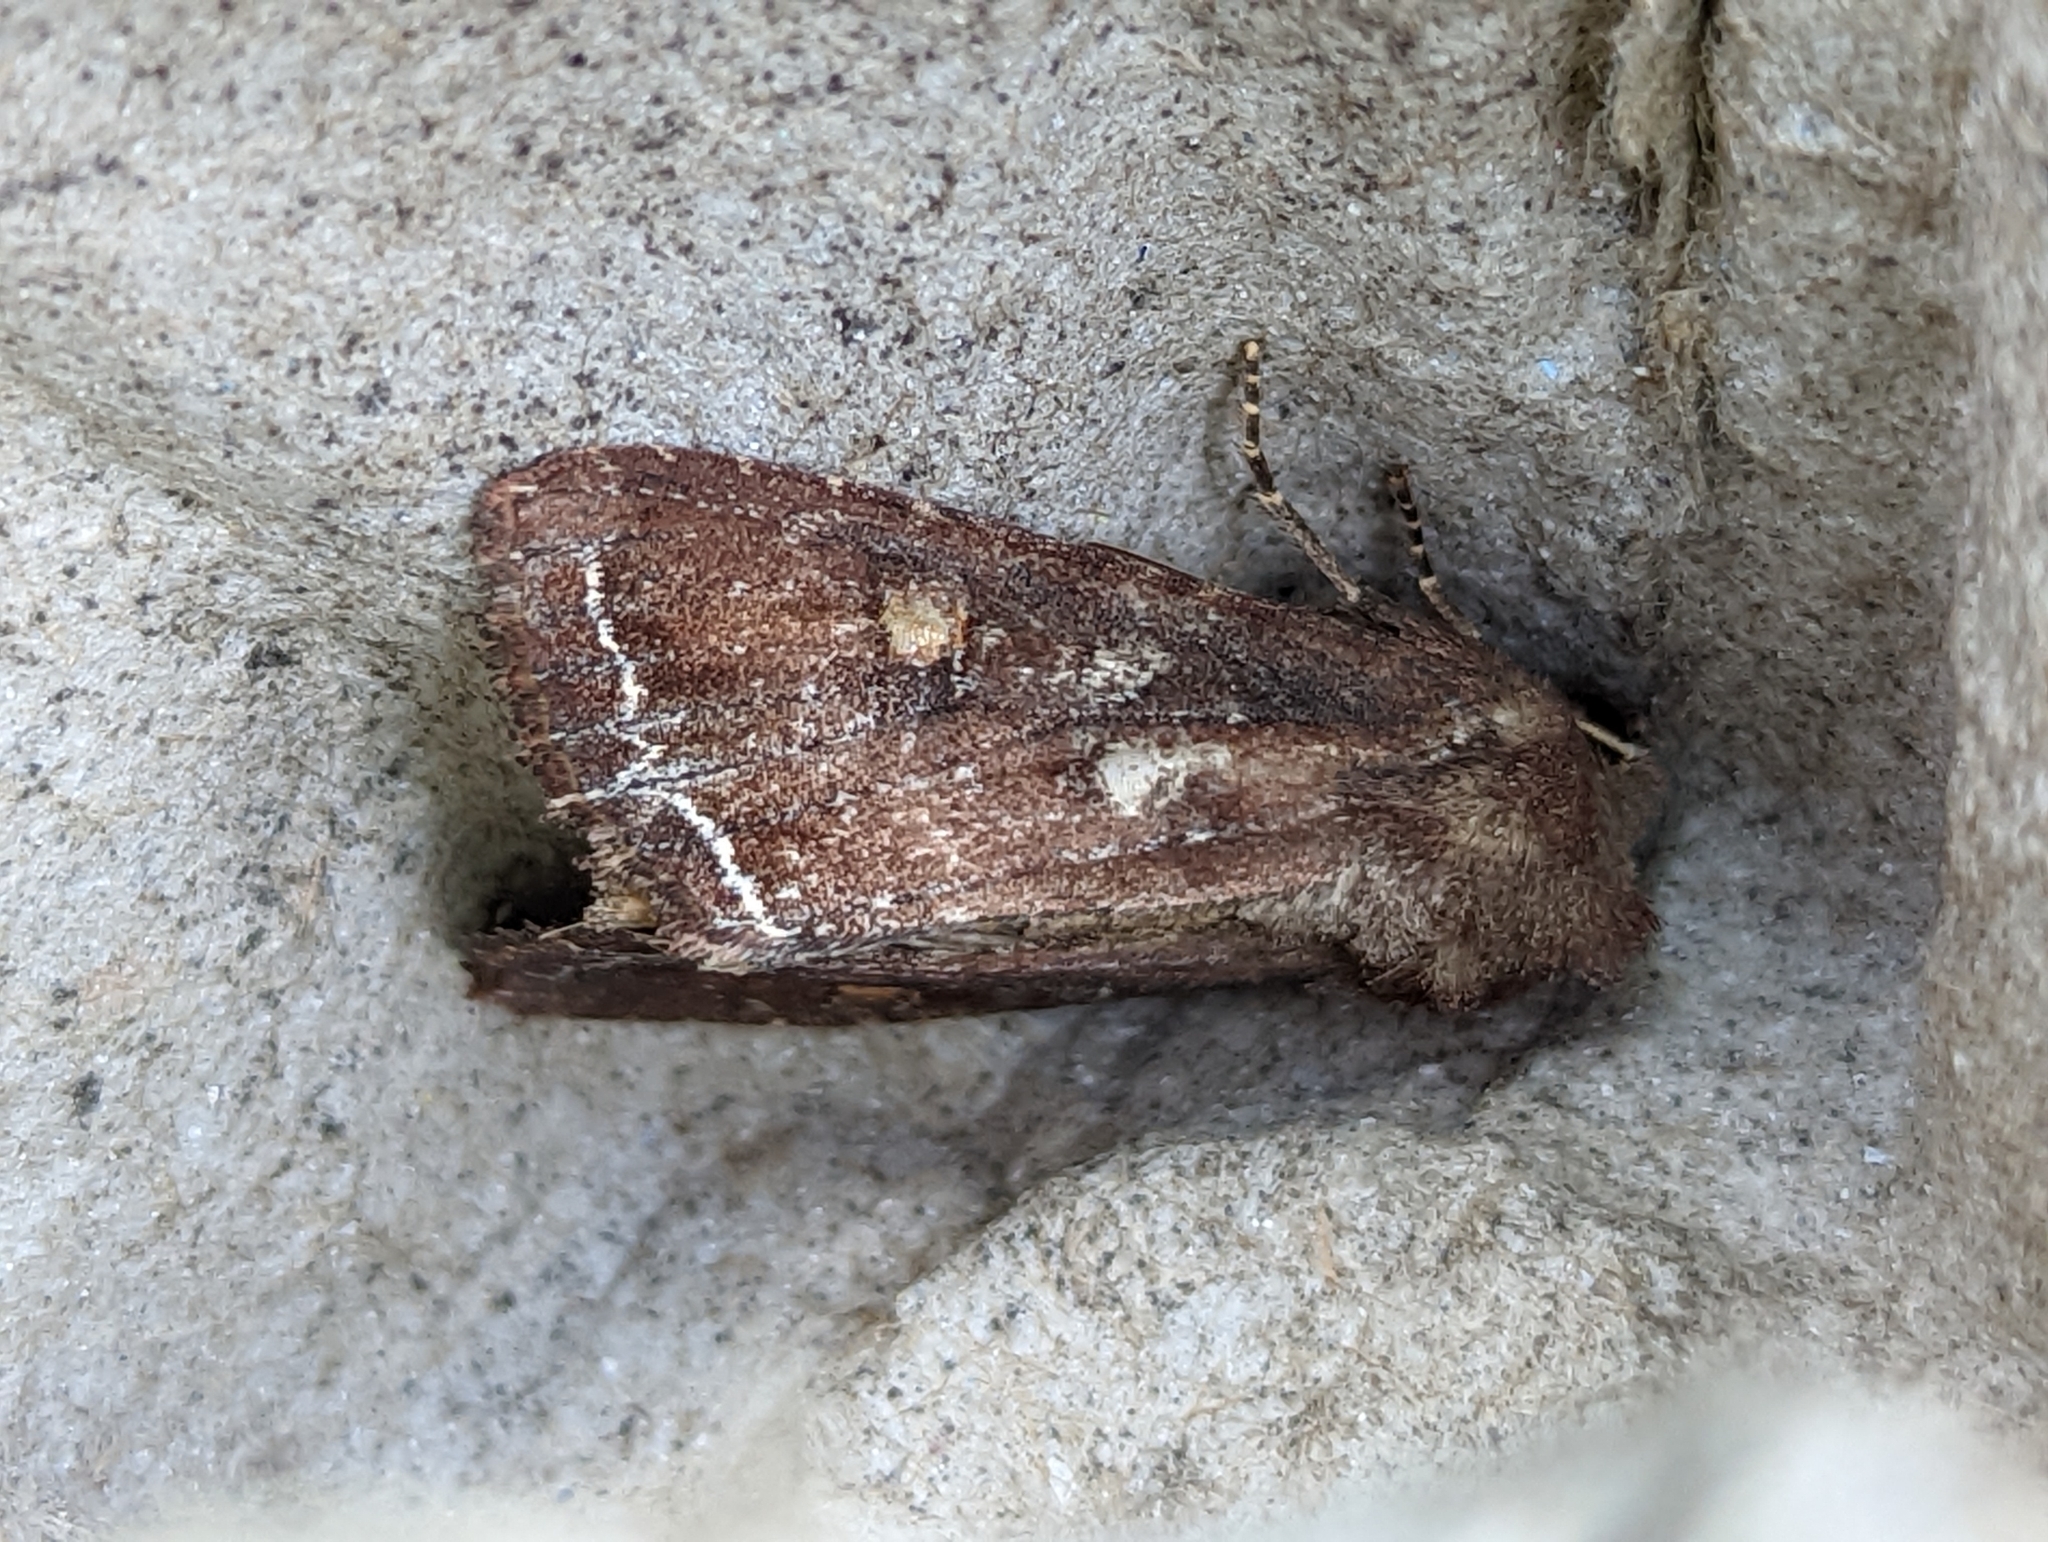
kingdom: Animalia
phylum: Arthropoda
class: Insecta
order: Lepidoptera
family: Noctuidae
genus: Lacanobia
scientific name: Lacanobia oleracea
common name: Bright-line brown-eye
